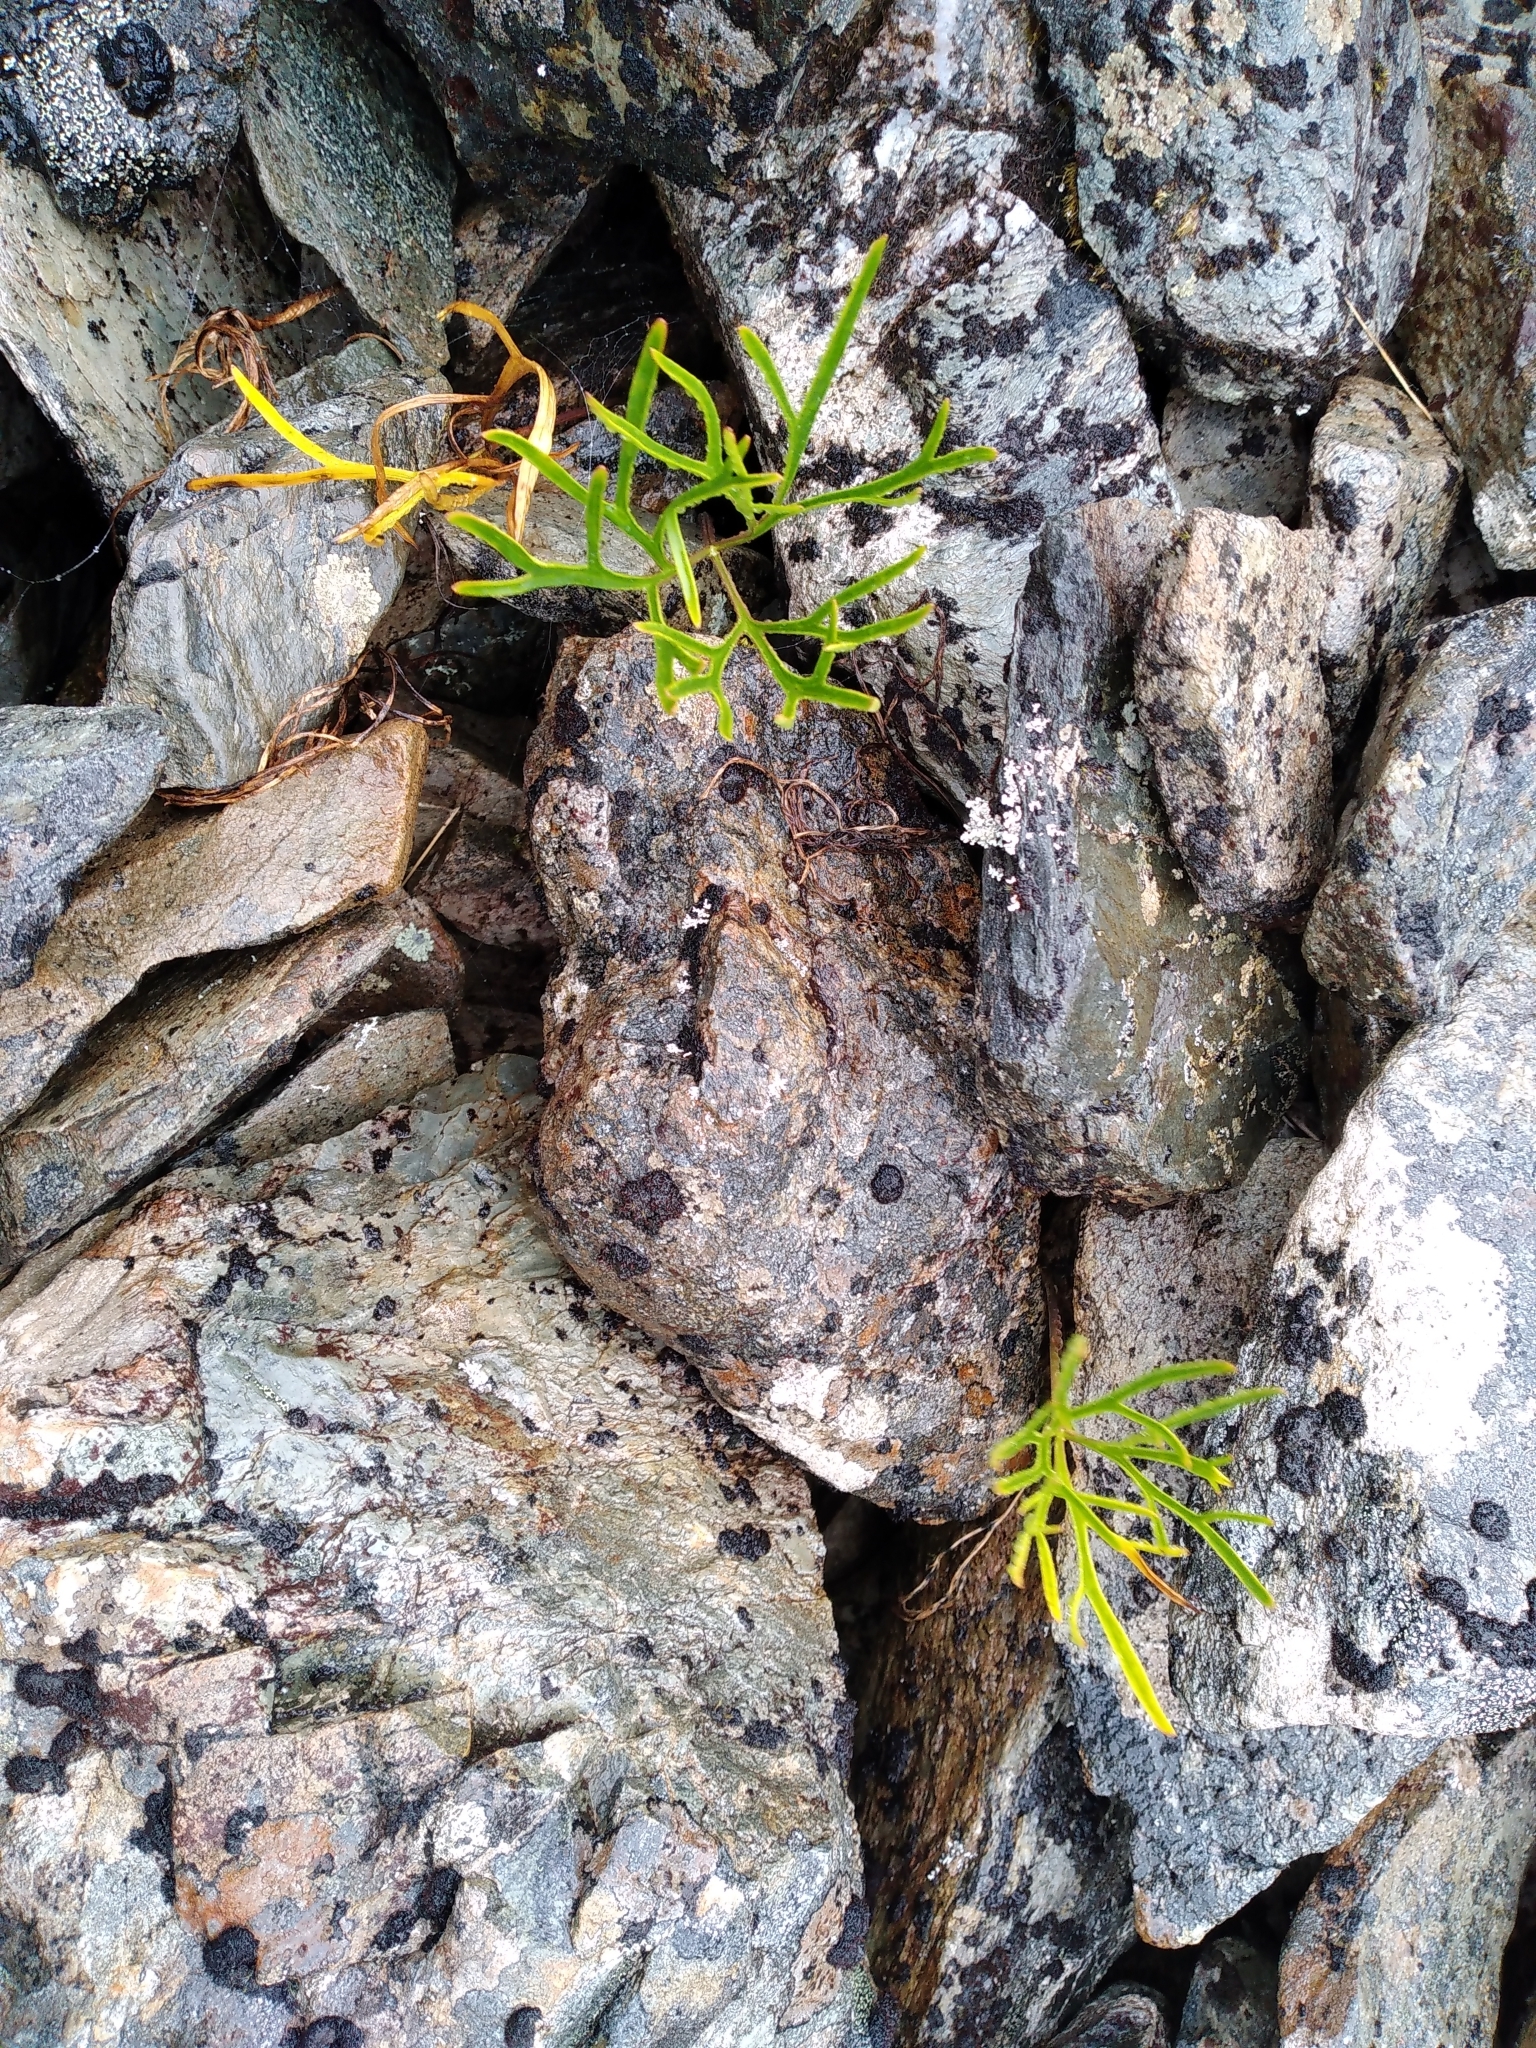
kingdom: Plantae
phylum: Tracheophyta
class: Magnoliopsida
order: Apiales
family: Apiaceae
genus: Anisotome
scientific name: Anisotome filifolia
